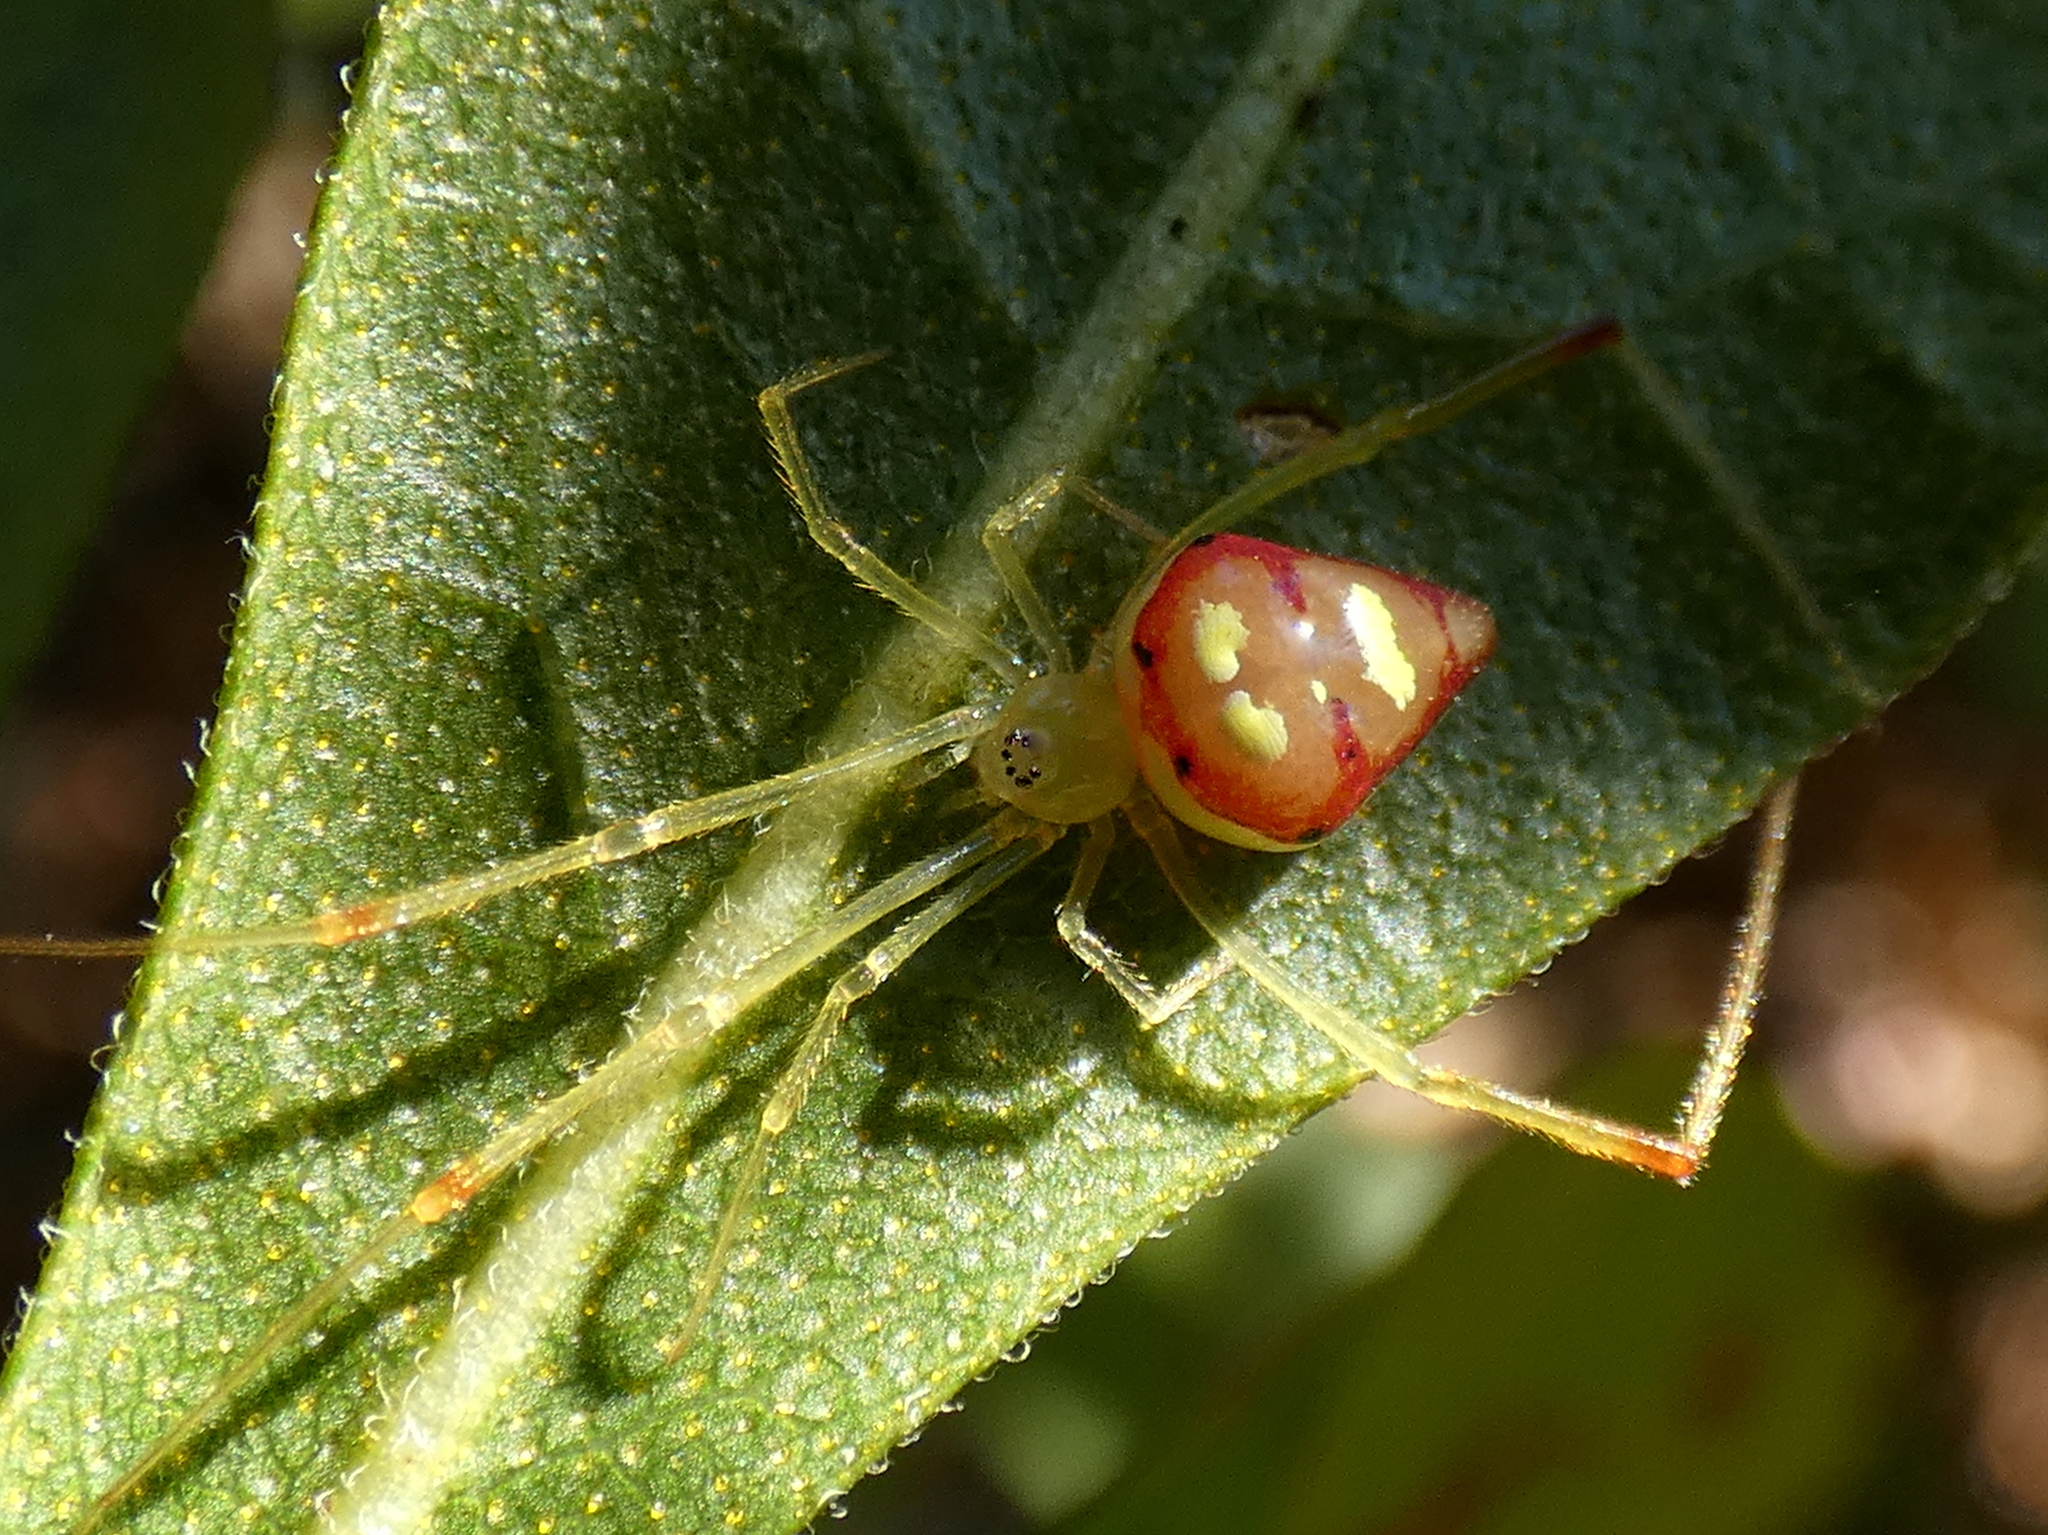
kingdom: Animalia
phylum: Arthropoda
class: Arachnida
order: Araneae
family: Theridiidae
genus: Spintharus
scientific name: Spintharus flavidus
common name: Cobweb spiders
